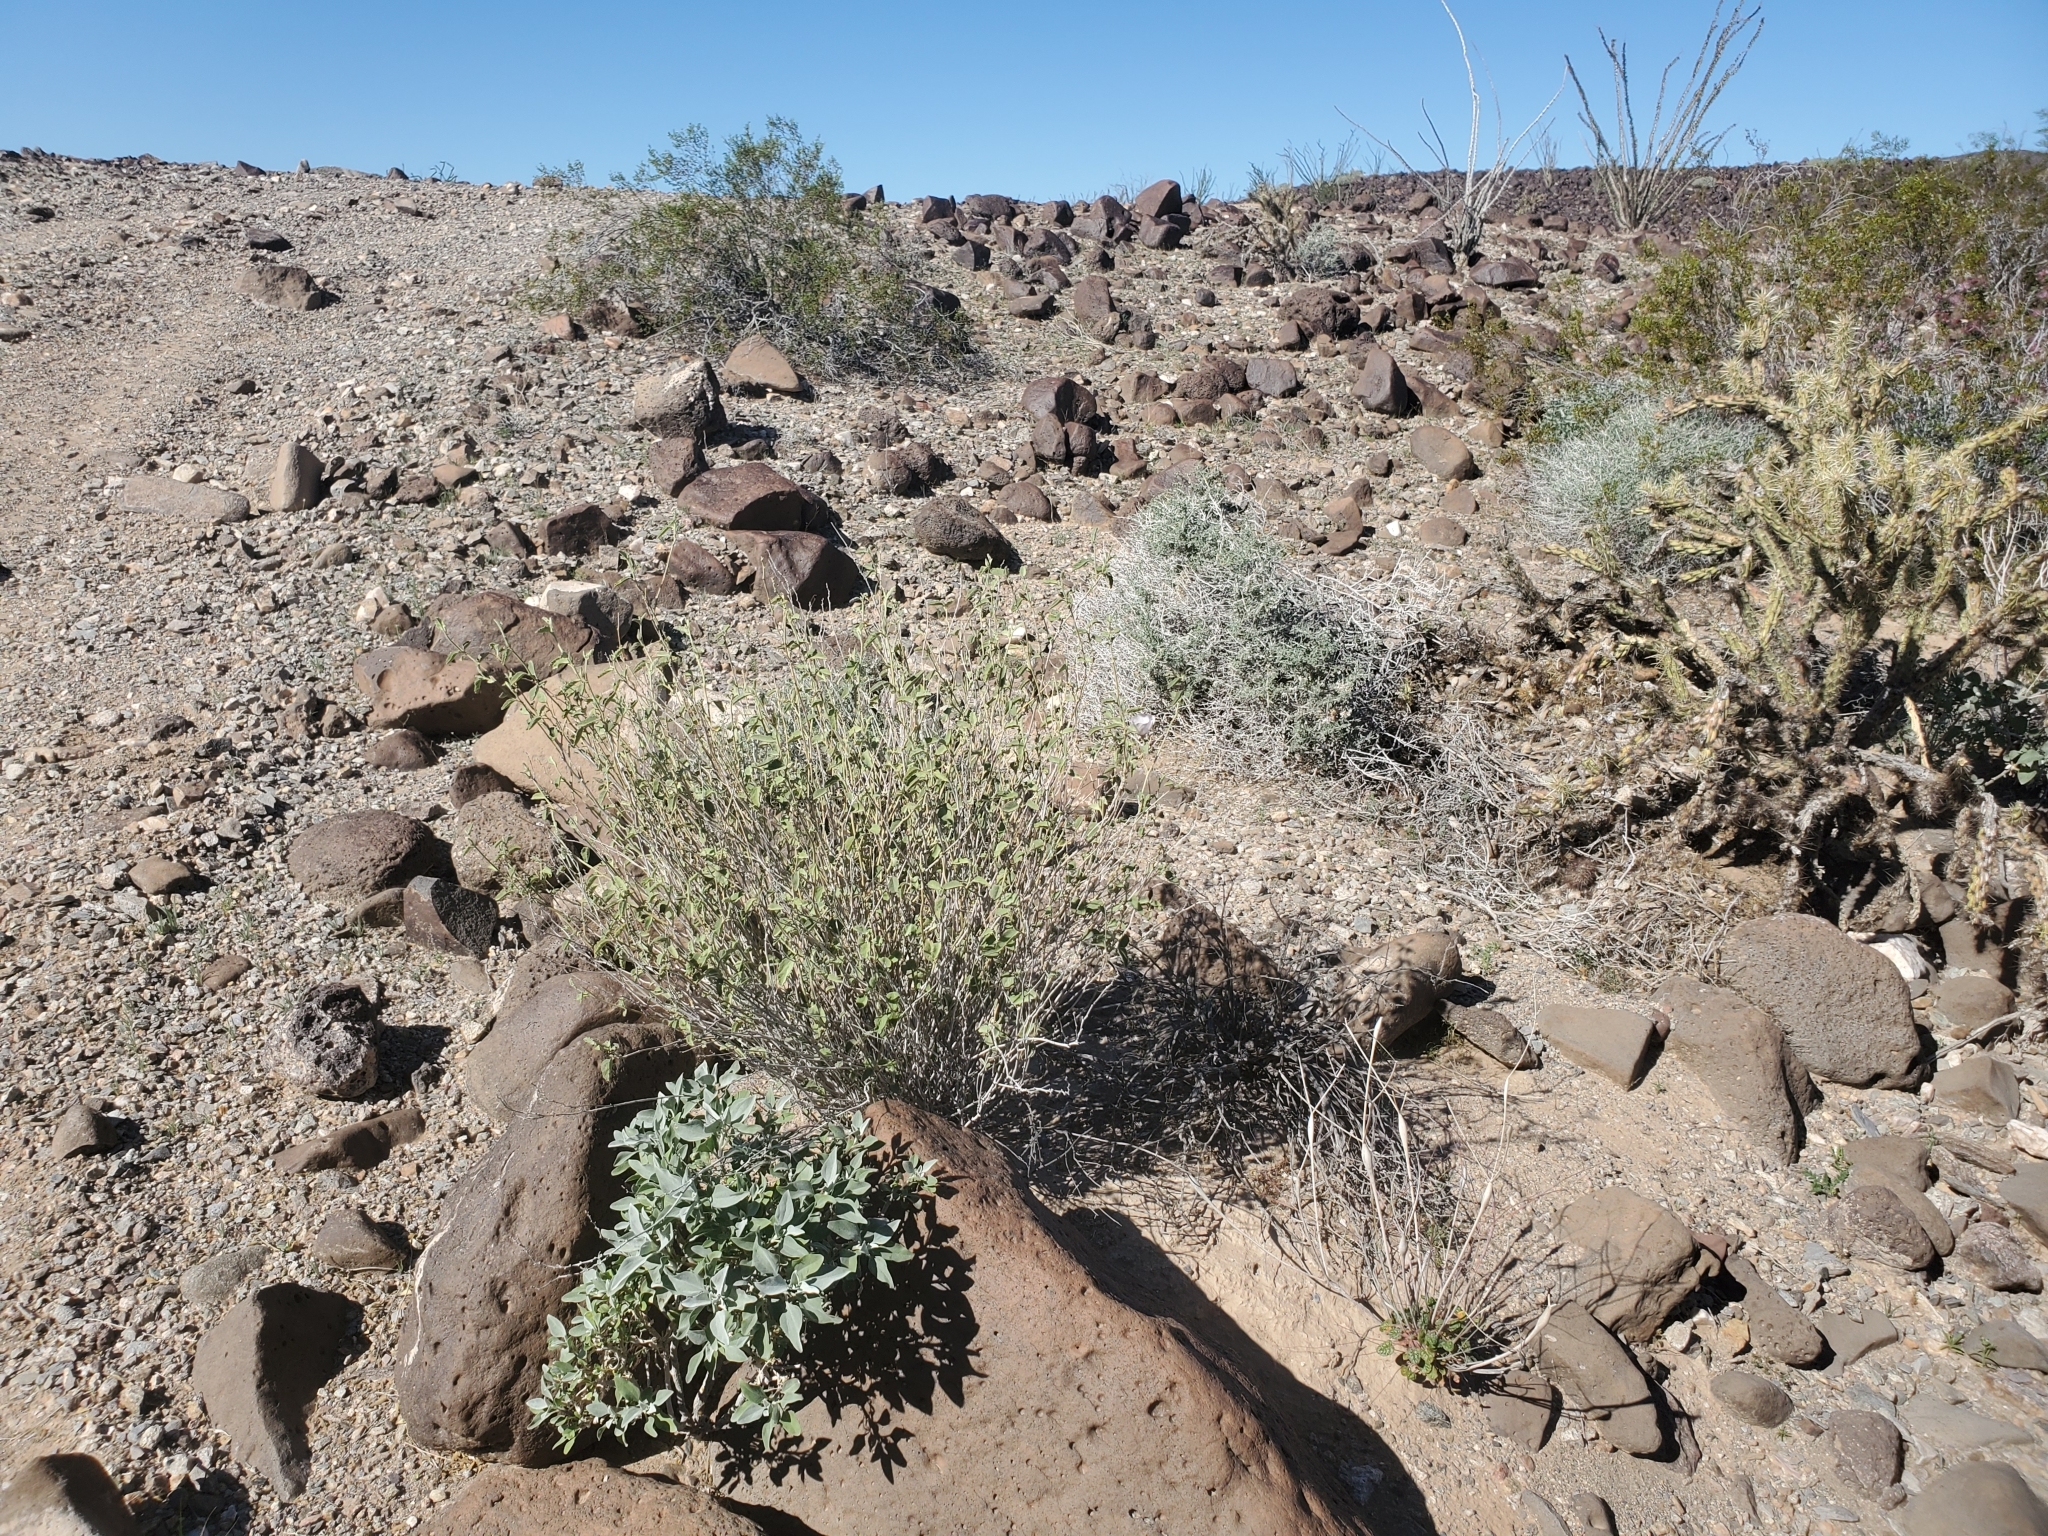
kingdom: Plantae
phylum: Tracheophyta
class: Magnoliopsida
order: Asterales
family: Asteraceae
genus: Ambrosia
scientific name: Ambrosia dumosa
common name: Bur-sage
